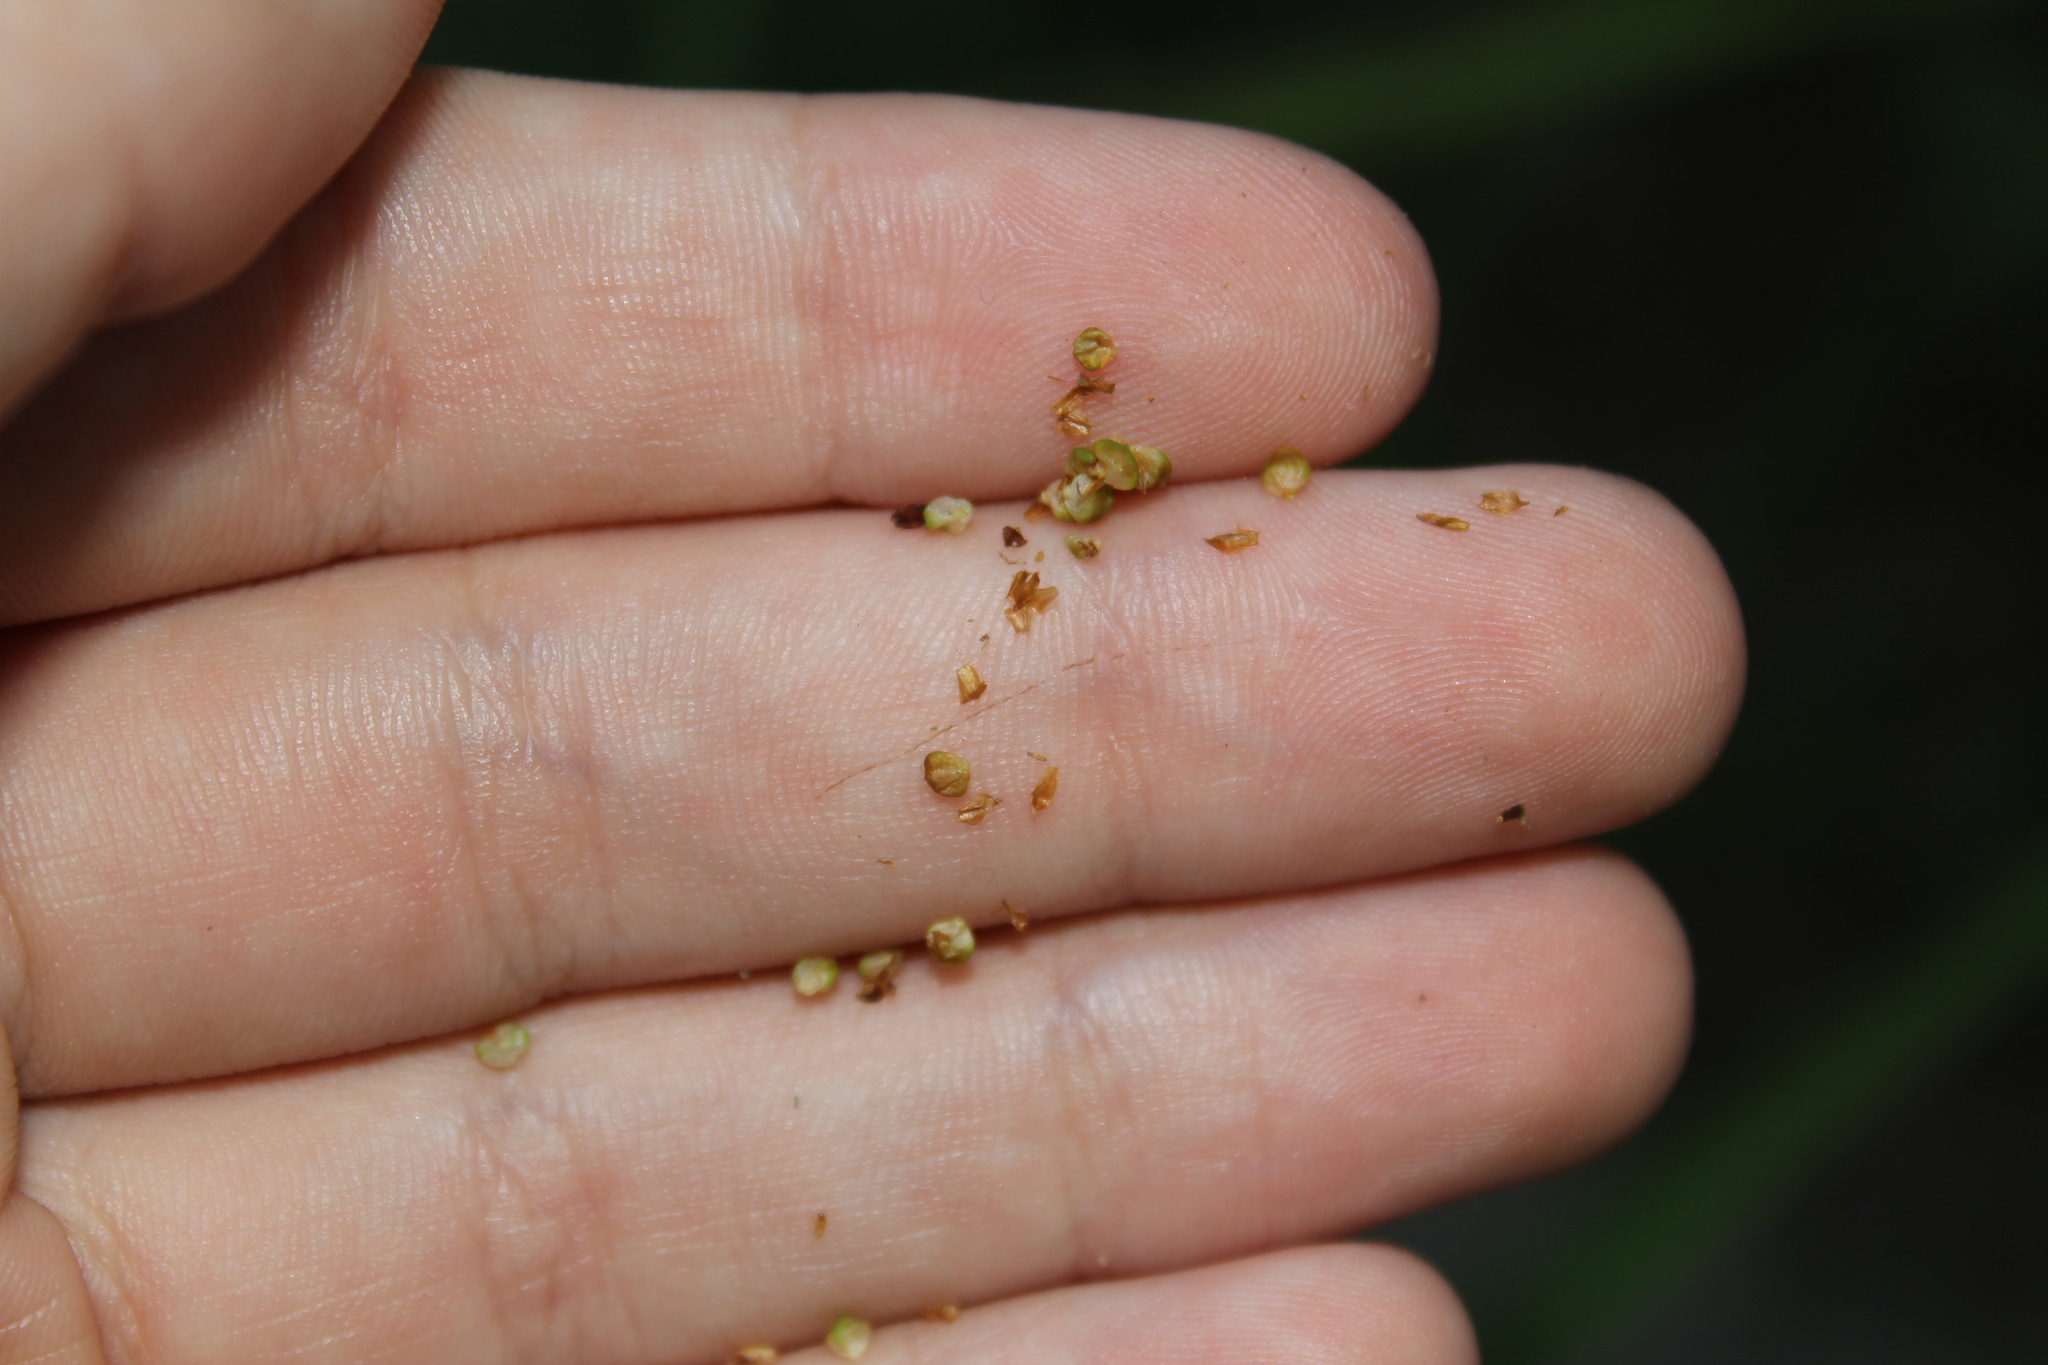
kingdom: Plantae
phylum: Tracheophyta
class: Liliopsida
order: Poales
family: Cyperaceae
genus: Carex
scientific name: Carex shortiana
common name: Short's sedge
